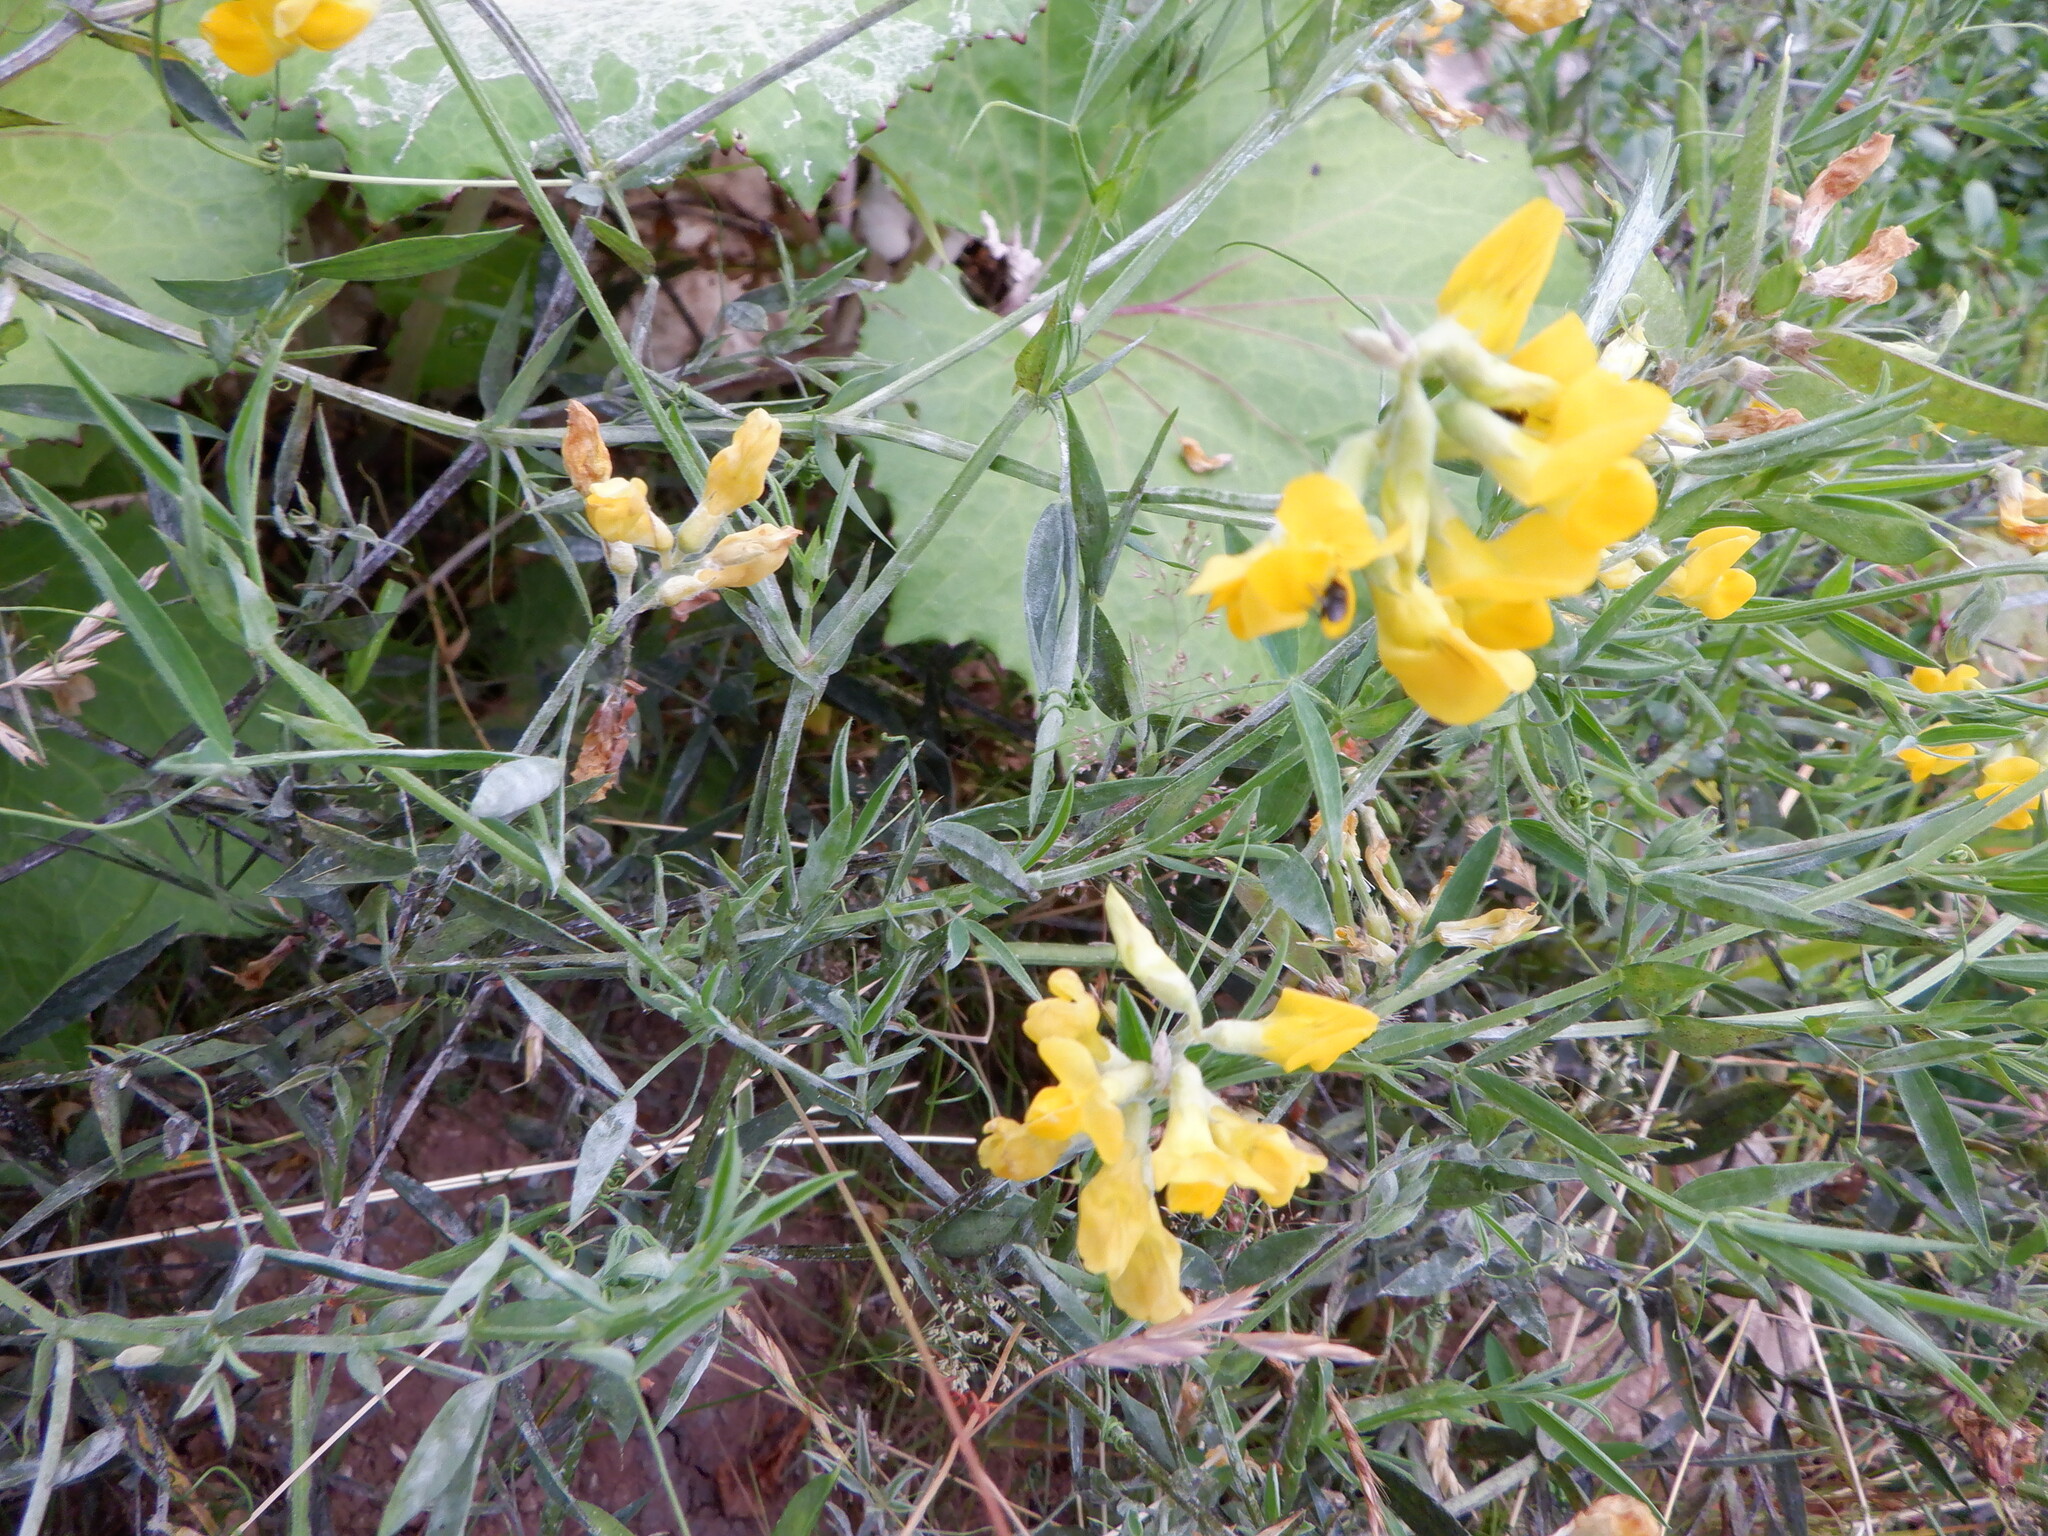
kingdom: Plantae
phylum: Tracheophyta
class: Magnoliopsida
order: Fabales
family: Fabaceae
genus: Lathyrus
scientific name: Lathyrus pratensis
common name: Meadow vetchling
